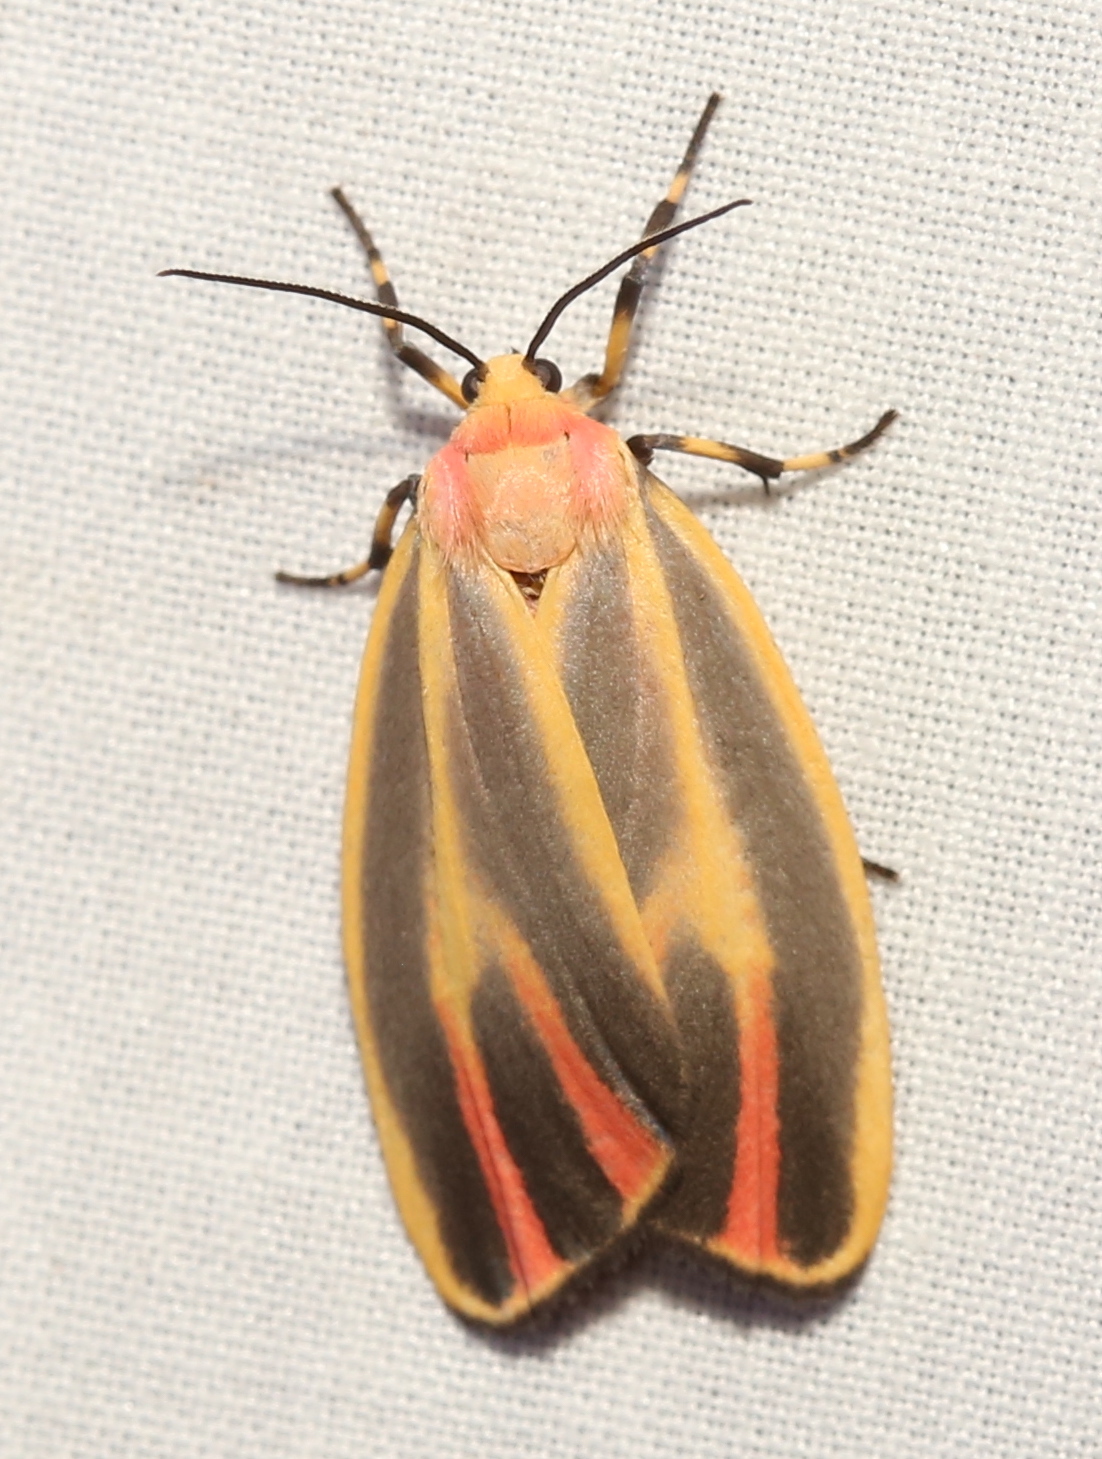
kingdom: Animalia
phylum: Arthropoda
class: Insecta
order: Lepidoptera
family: Erebidae
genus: Hypoprepia
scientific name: Hypoprepia fucosa
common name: Painted lichen moth
